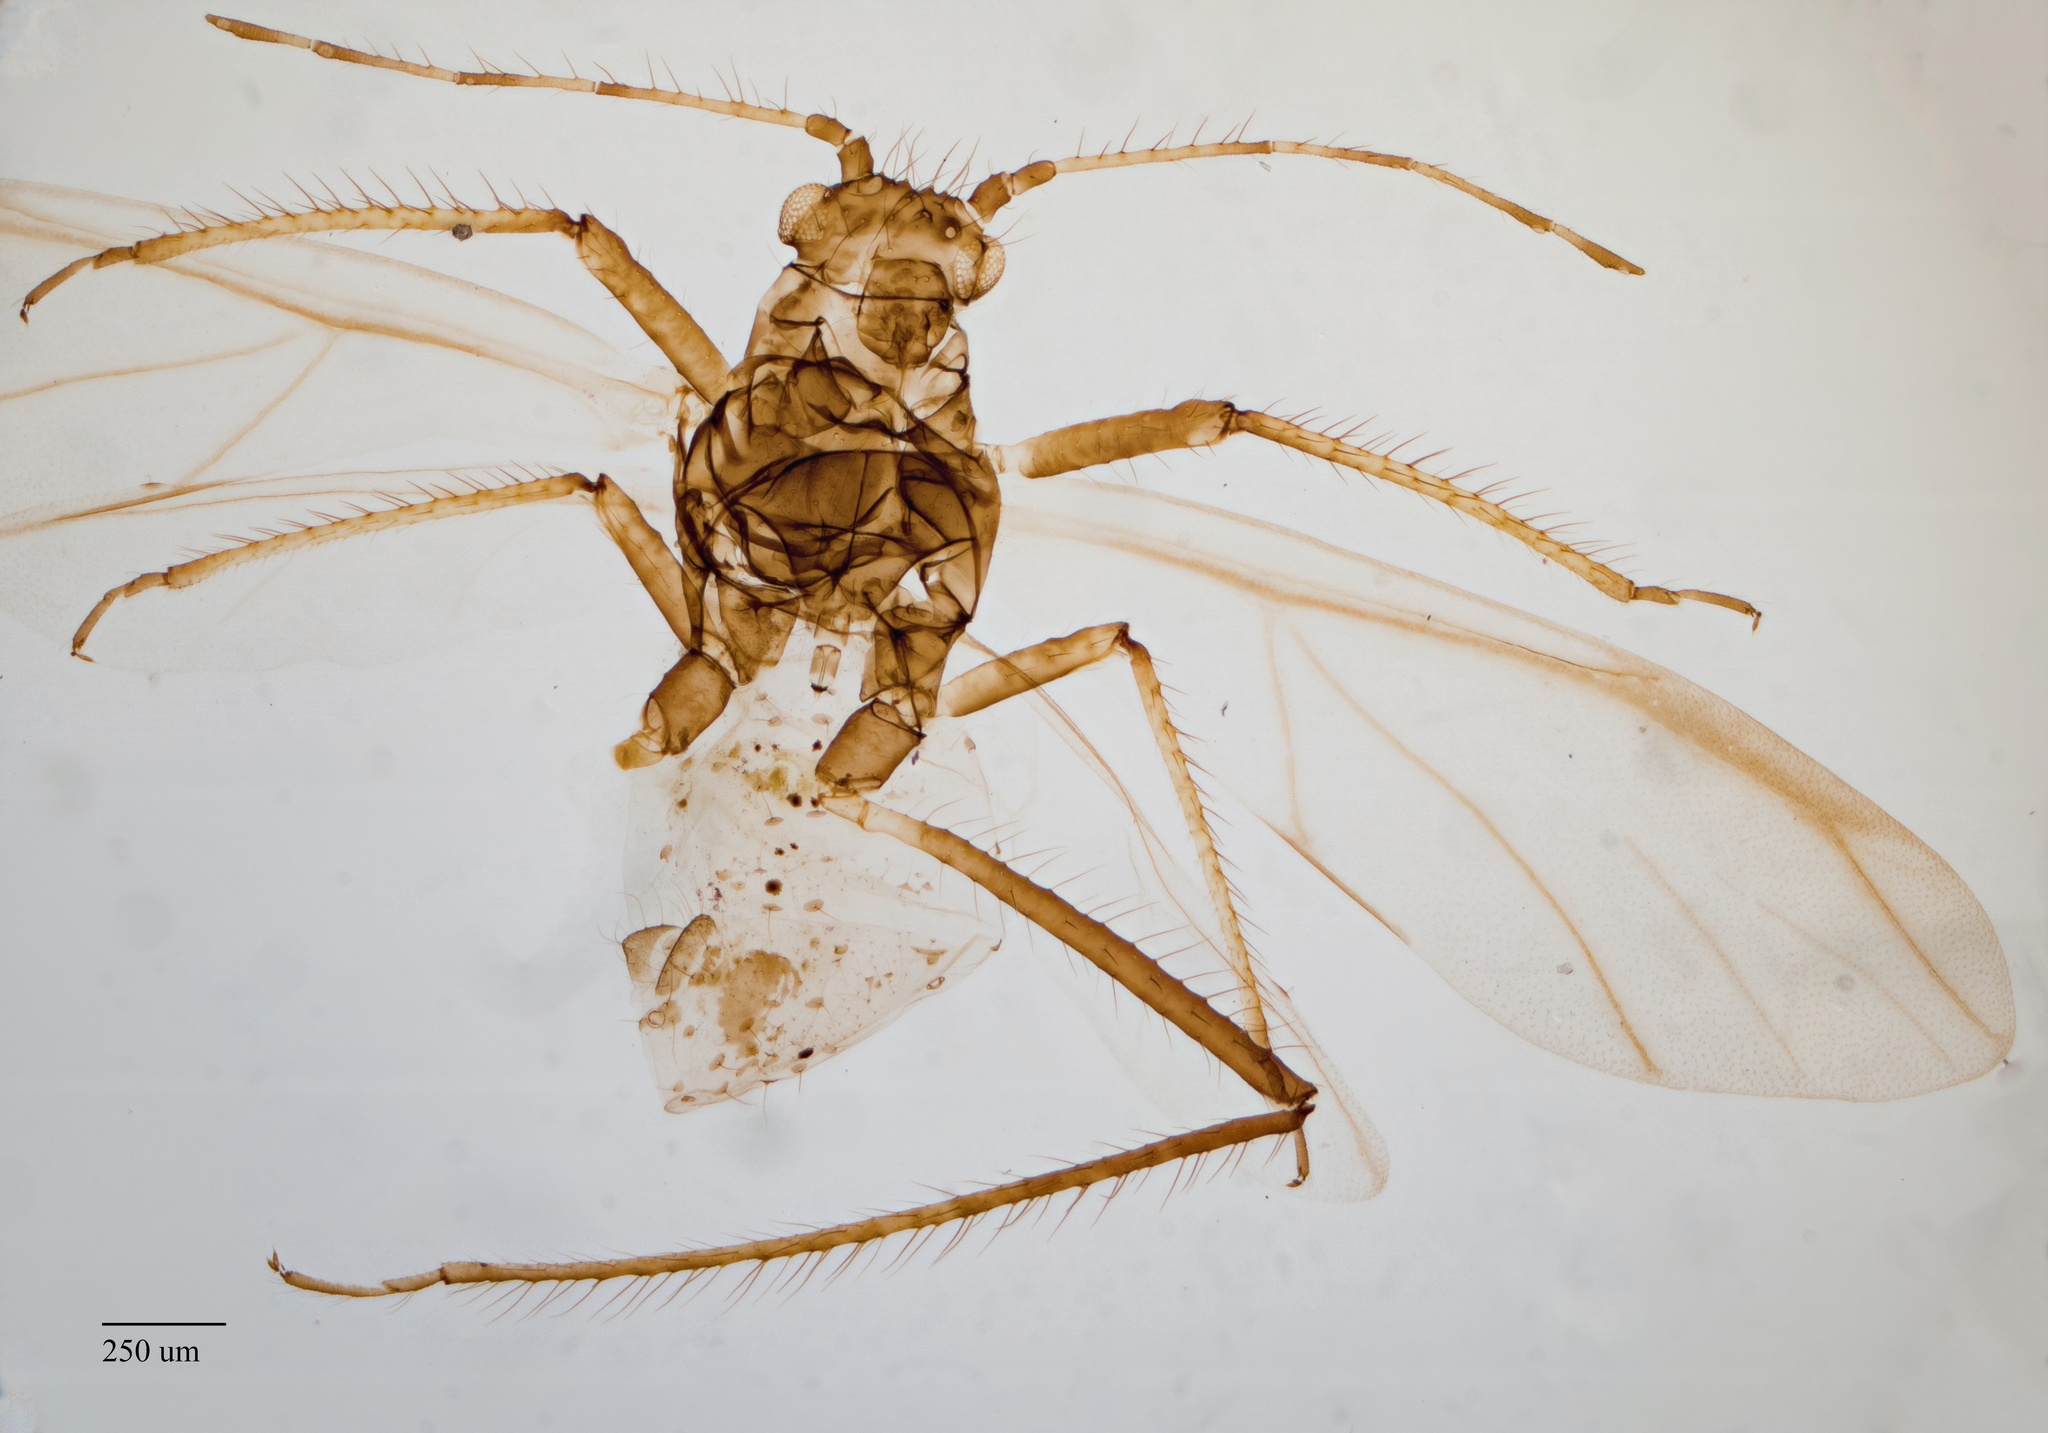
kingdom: Animalia
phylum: Arthropoda
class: Insecta
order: Hemiptera
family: Aphididae
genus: Eulachnus
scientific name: Eulachnus rileyi
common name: Active gray pine needle aphid
